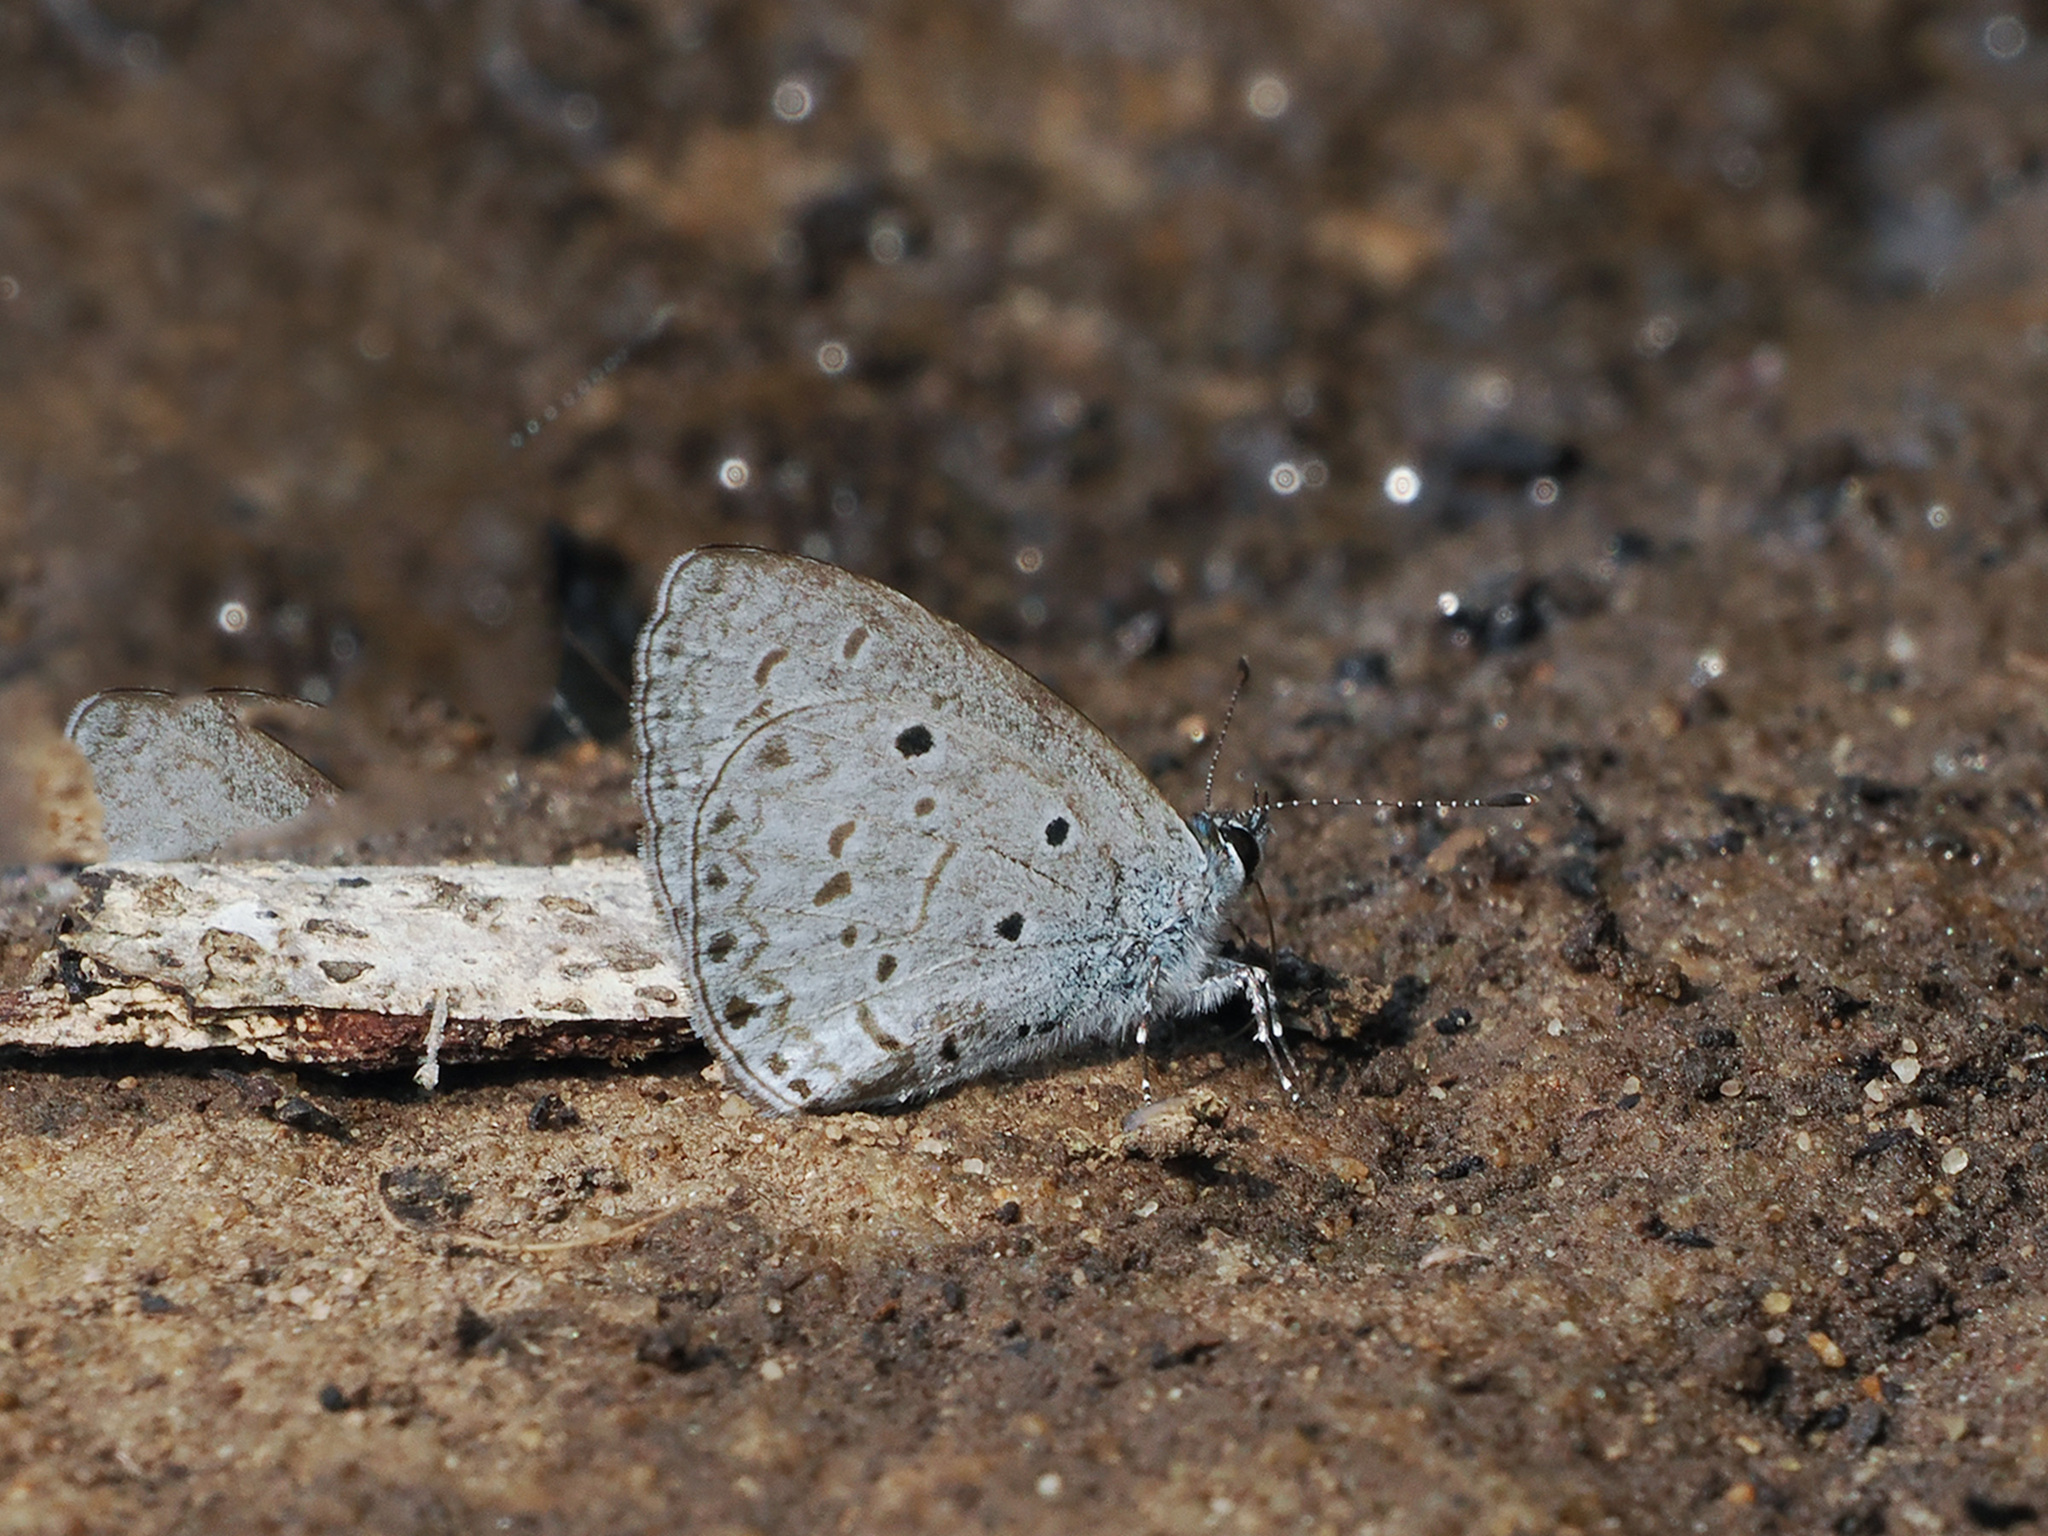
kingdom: Animalia
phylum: Arthropoda
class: Insecta
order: Lepidoptera
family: Lycaenidae
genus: Celastrina
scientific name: Celastrina lavendularis
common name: Plain hedge blue
